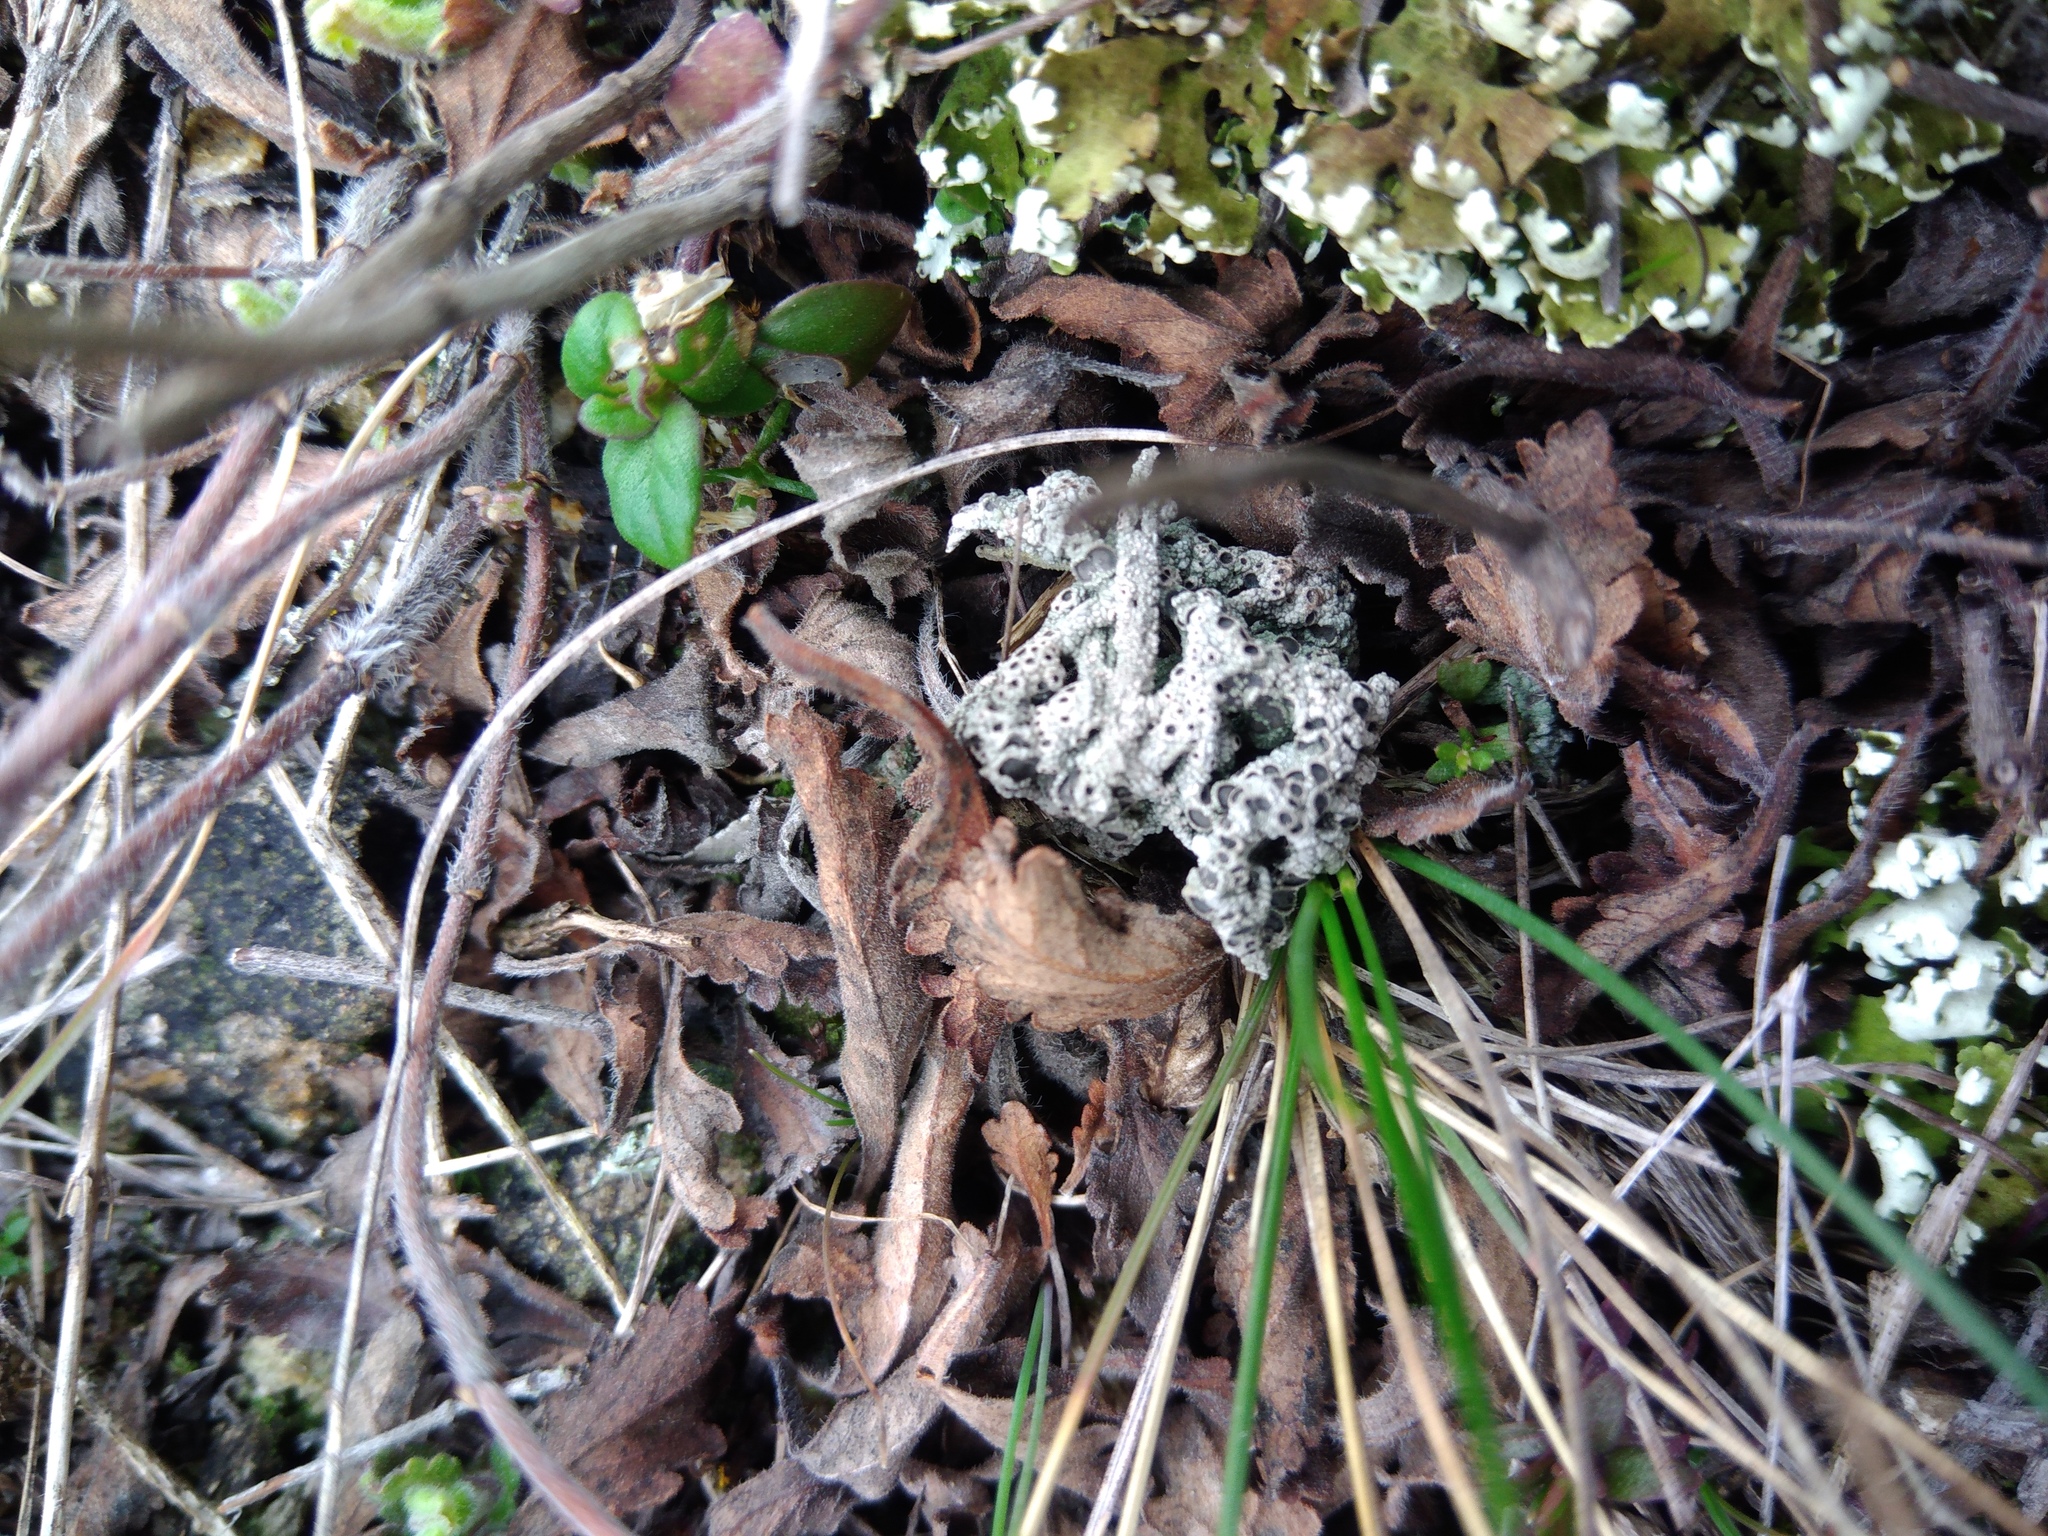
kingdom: Fungi
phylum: Ascomycota
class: Lecanoromycetes
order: Ostropales
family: Graphidaceae
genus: Diploschistes
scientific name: Diploschistes muscorum
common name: Cowpie lichen
